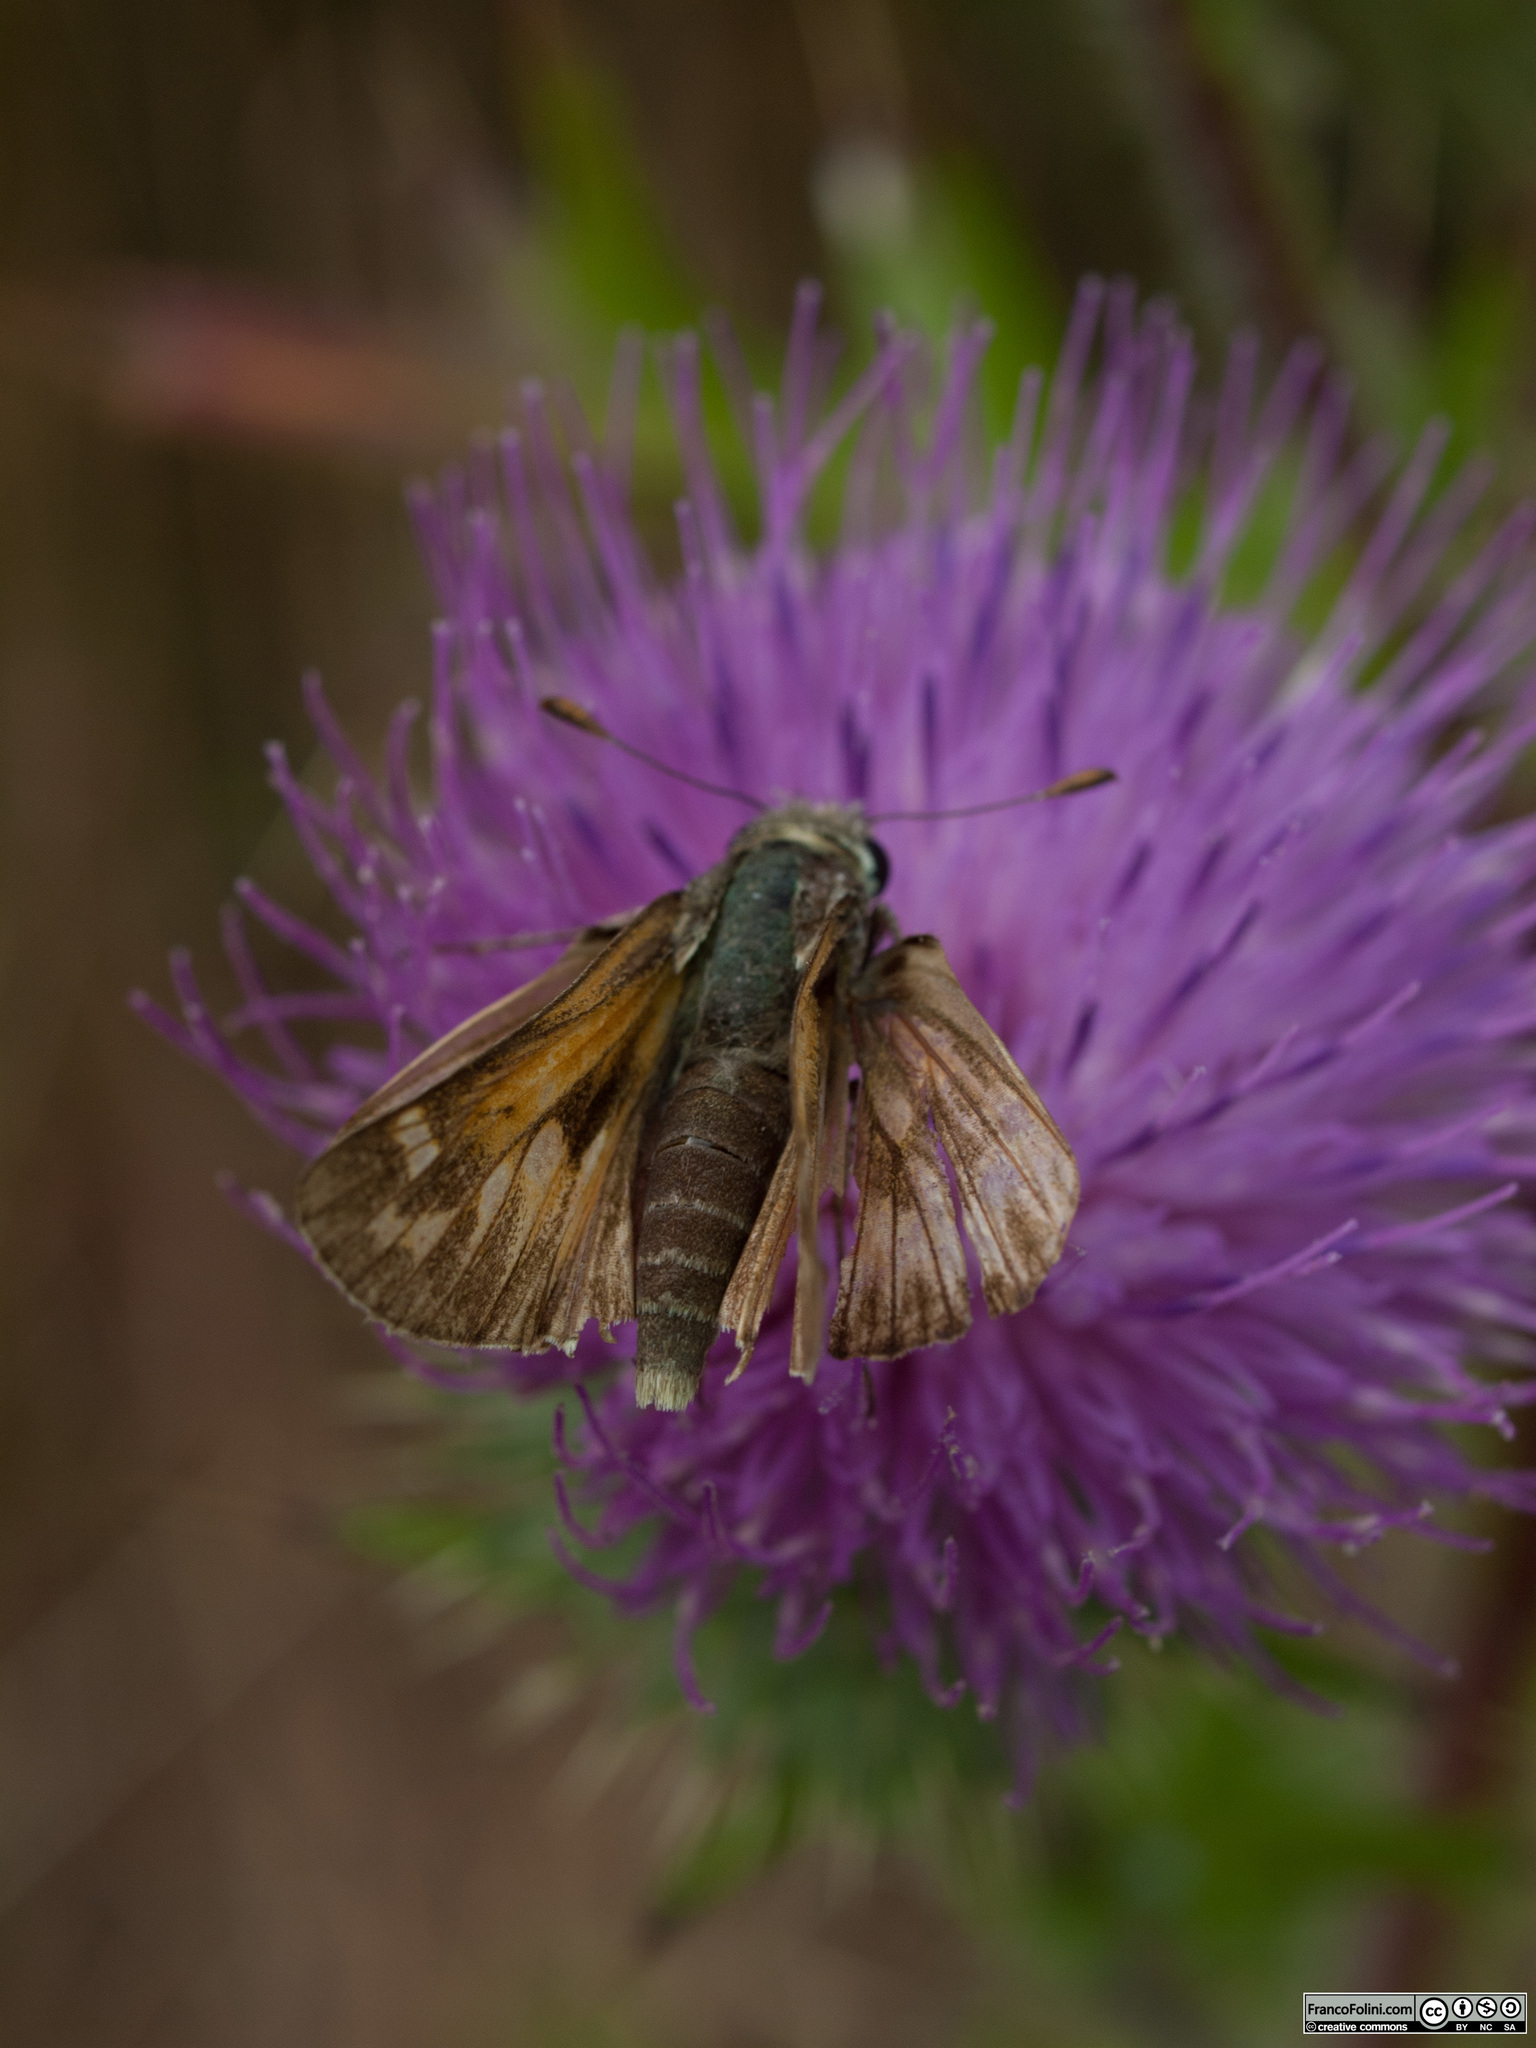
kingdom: Animalia
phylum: Arthropoda
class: Insecta
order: Lepidoptera
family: Hesperiidae
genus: Polites
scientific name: Polites sabuleti
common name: Sandhill skipper
